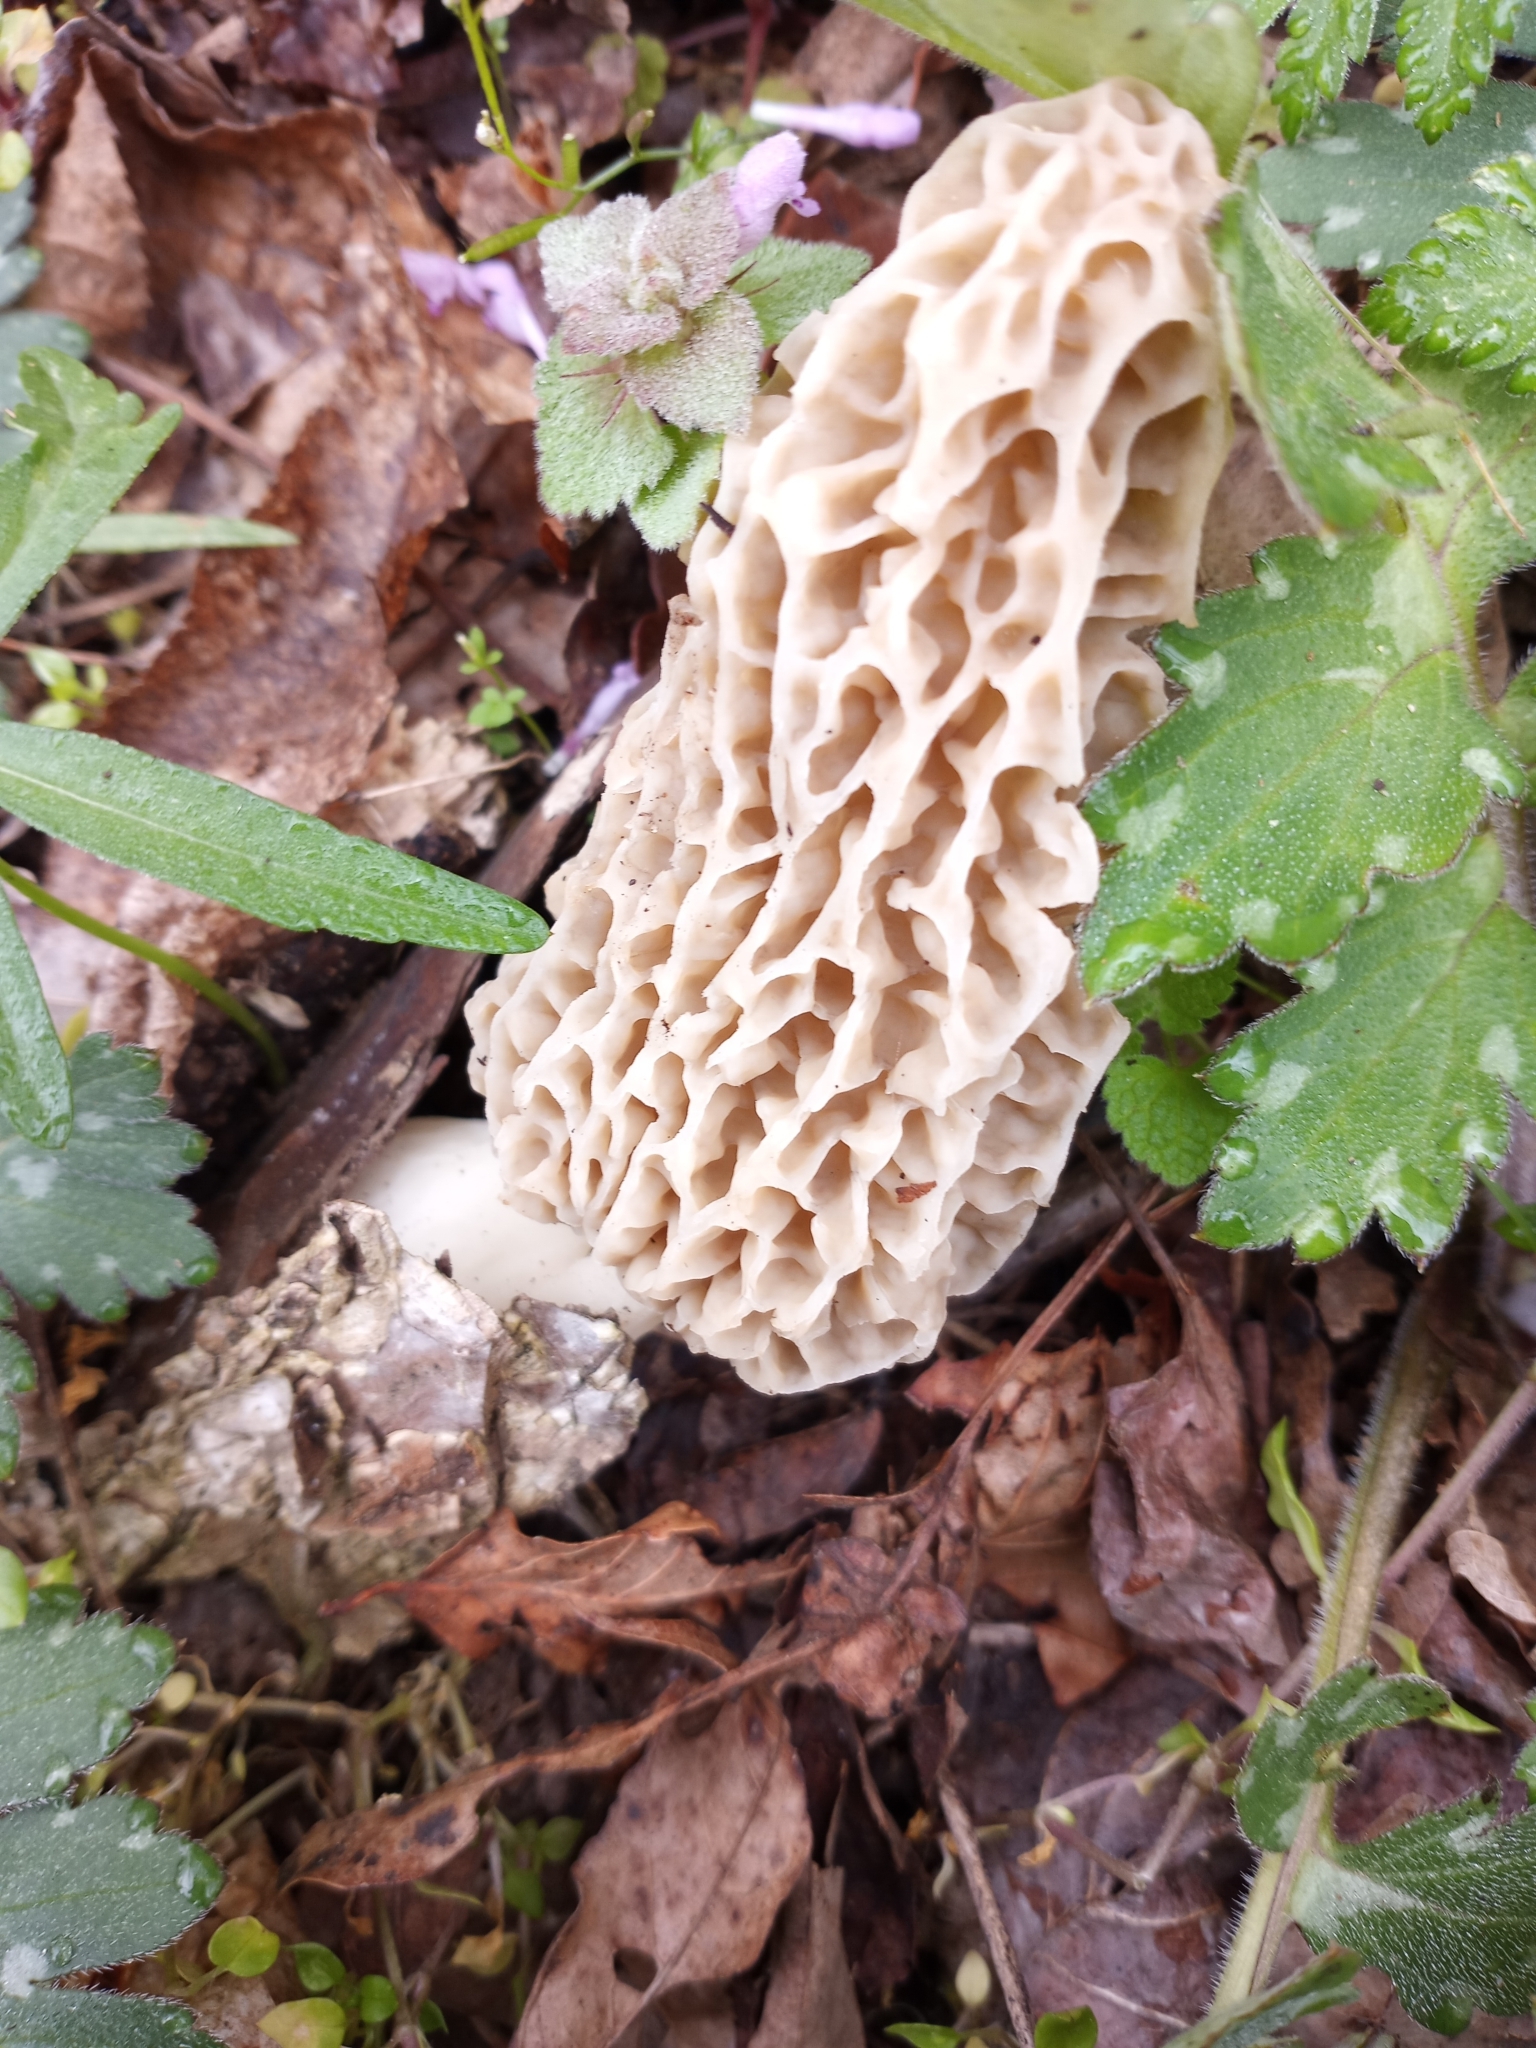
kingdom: Fungi
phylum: Ascomycota
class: Pezizomycetes
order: Pezizales
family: Morchellaceae
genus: Morchella
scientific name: Morchella americana
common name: White morel
